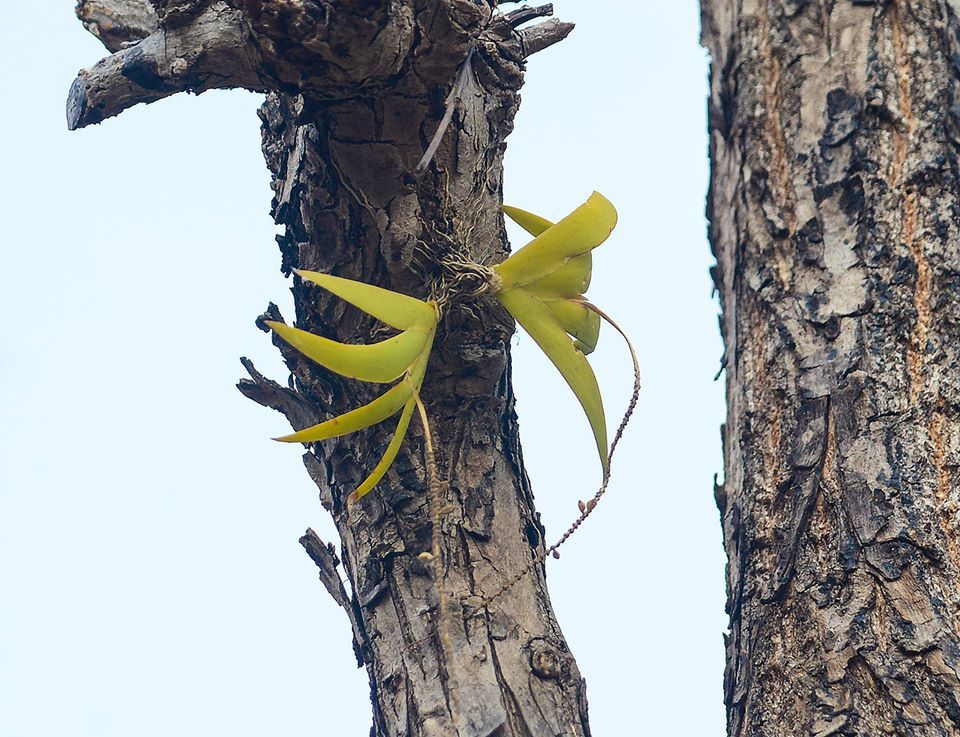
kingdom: Plantae
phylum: Tracheophyta
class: Liliopsida
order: Asparagales
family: Orchidaceae
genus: Oberonia
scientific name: Oberonia mucronata
